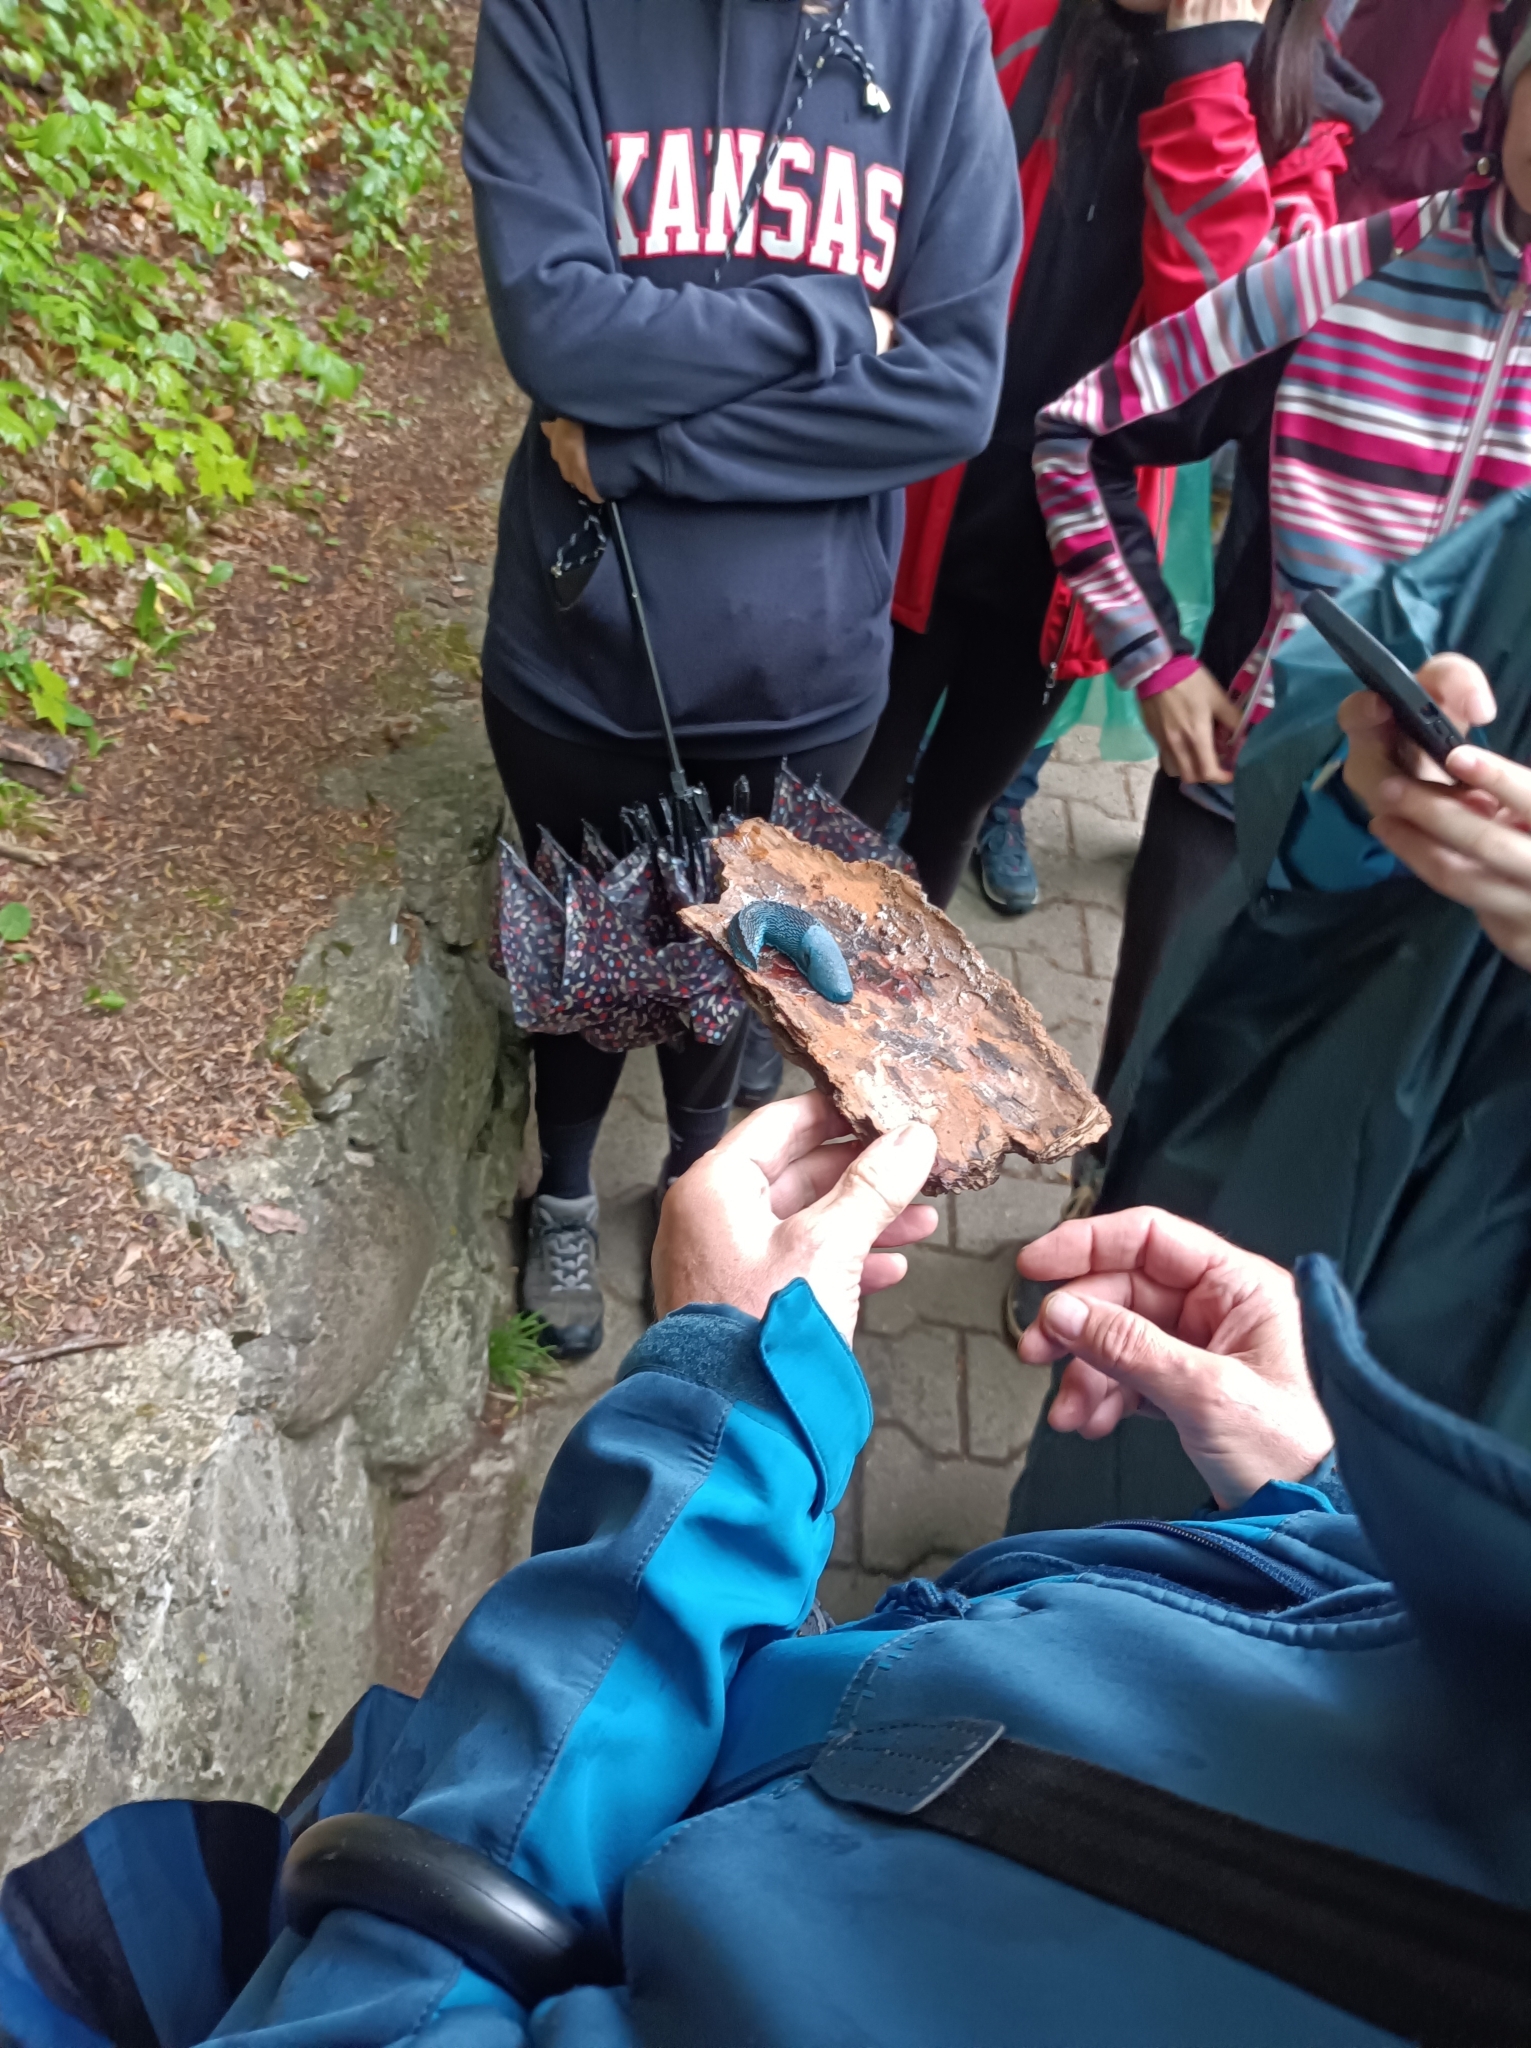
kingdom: Animalia
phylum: Mollusca
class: Gastropoda
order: Stylommatophora
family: Limacidae
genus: Bielzia
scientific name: Bielzia coerulans
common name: Carpathian blue slug
